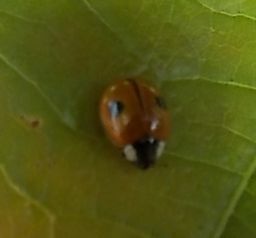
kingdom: Animalia
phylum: Arthropoda
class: Insecta
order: Coleoptera
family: Coccinellidae
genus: Adalia
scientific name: Adalia bipunctata
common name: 2-spot ladybird
